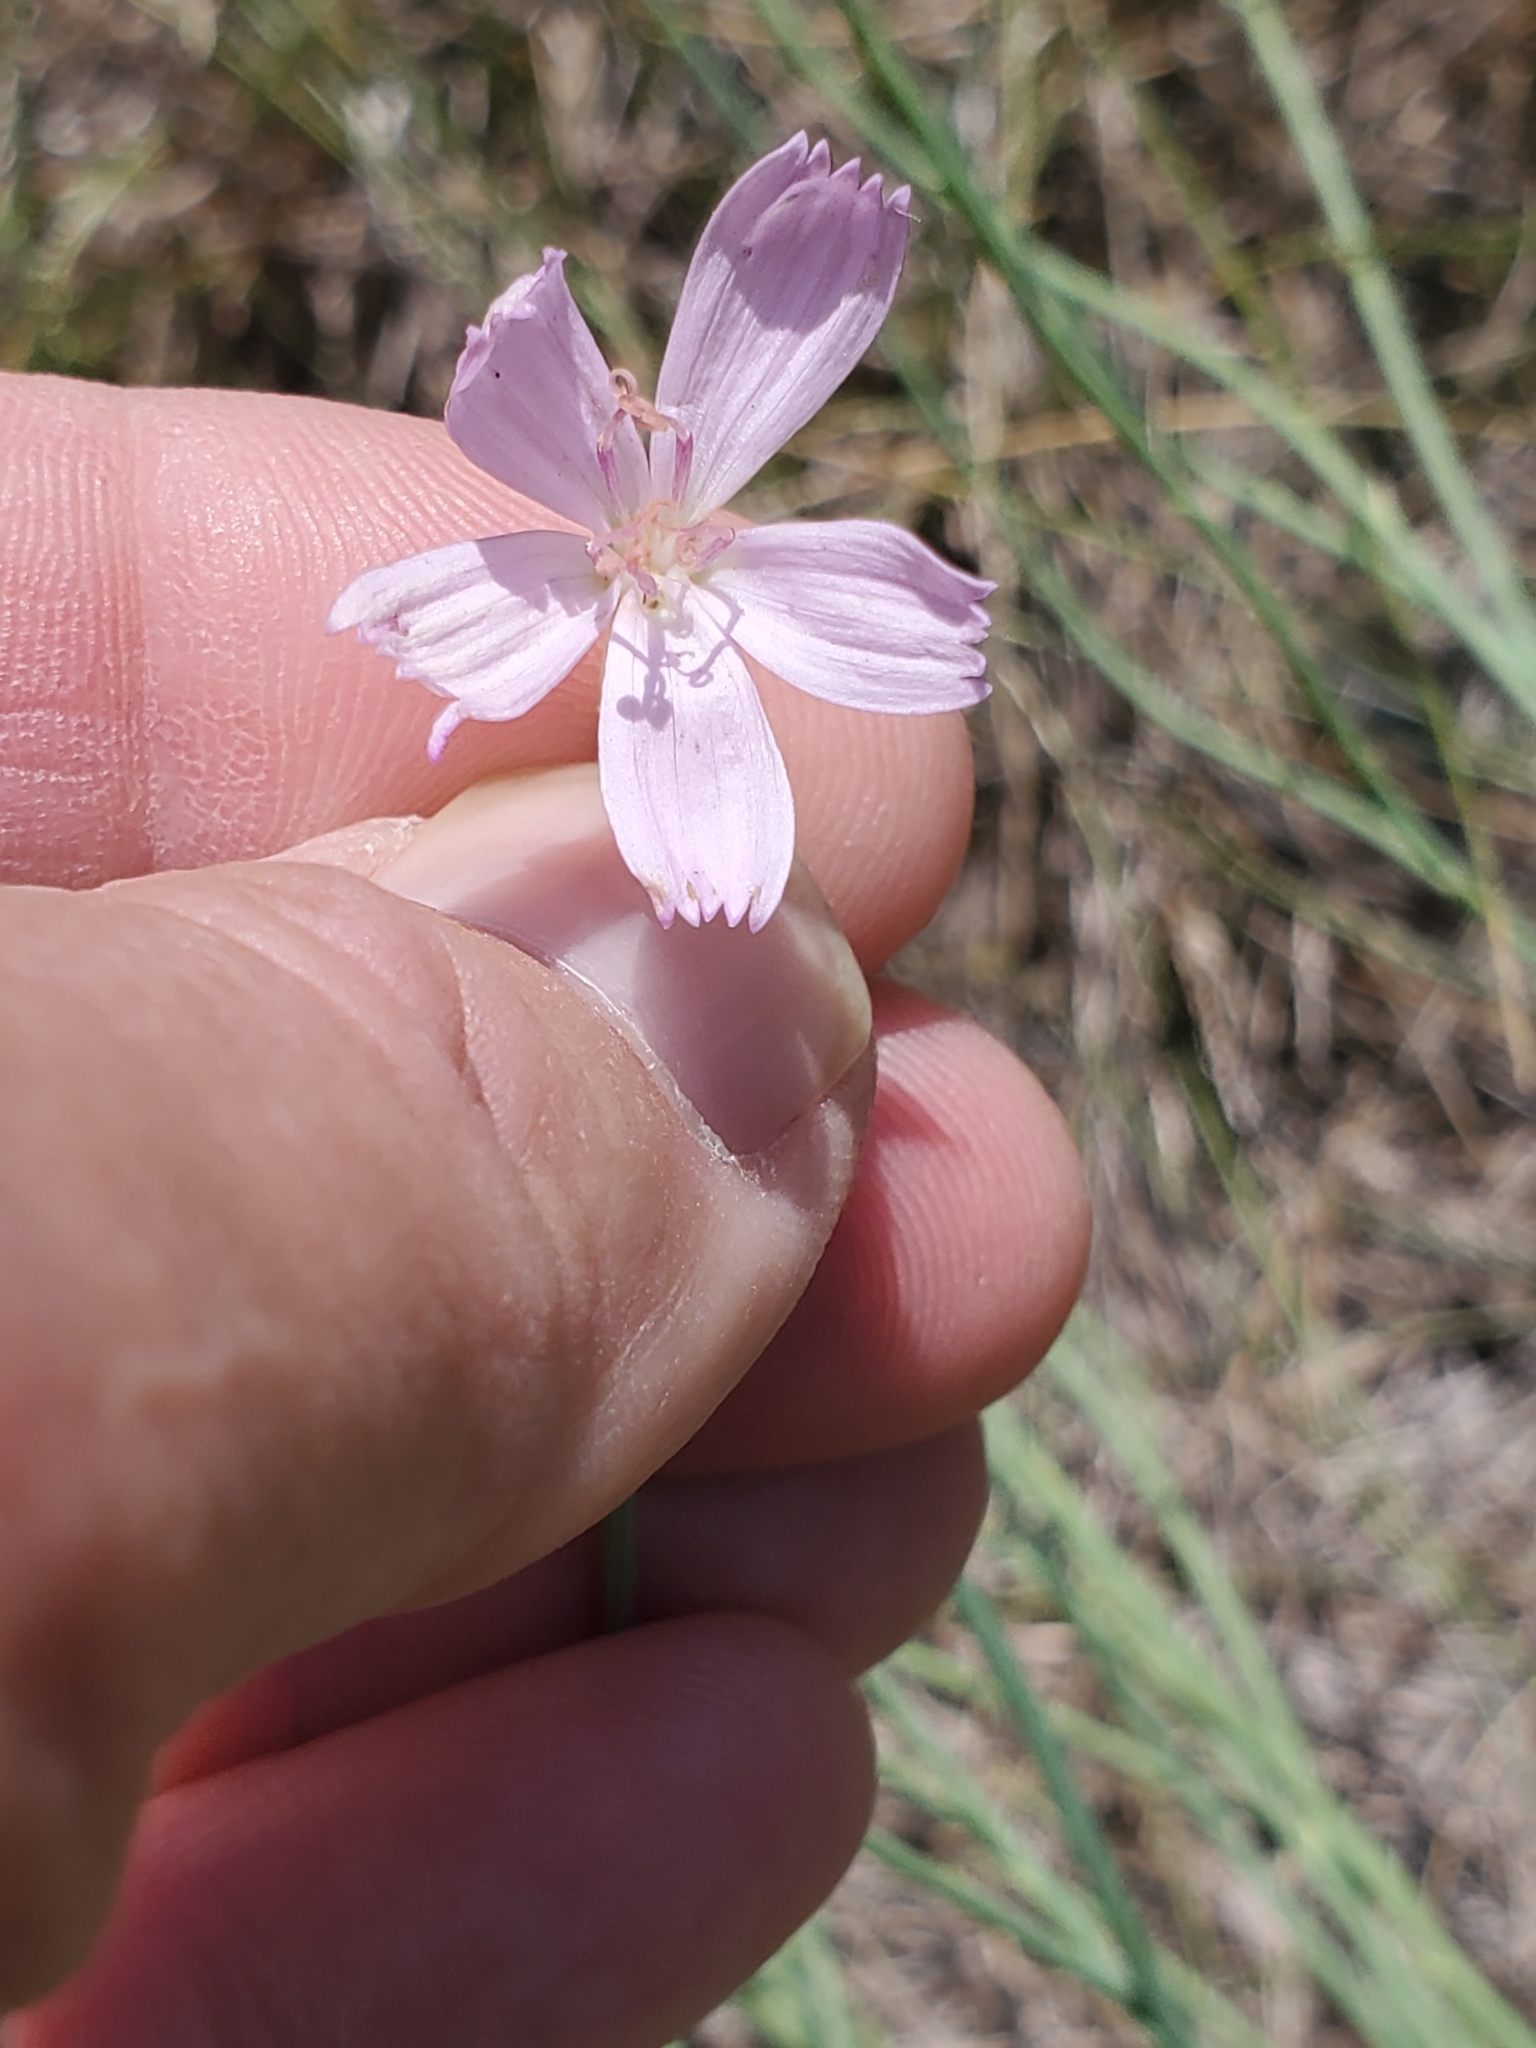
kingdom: Plantae
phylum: Tracheophyta
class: Magnoliopsida
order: Asterales
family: Asteraceae
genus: Lygodesmia
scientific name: Lygodesmia juncea
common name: Common skeletonweed
